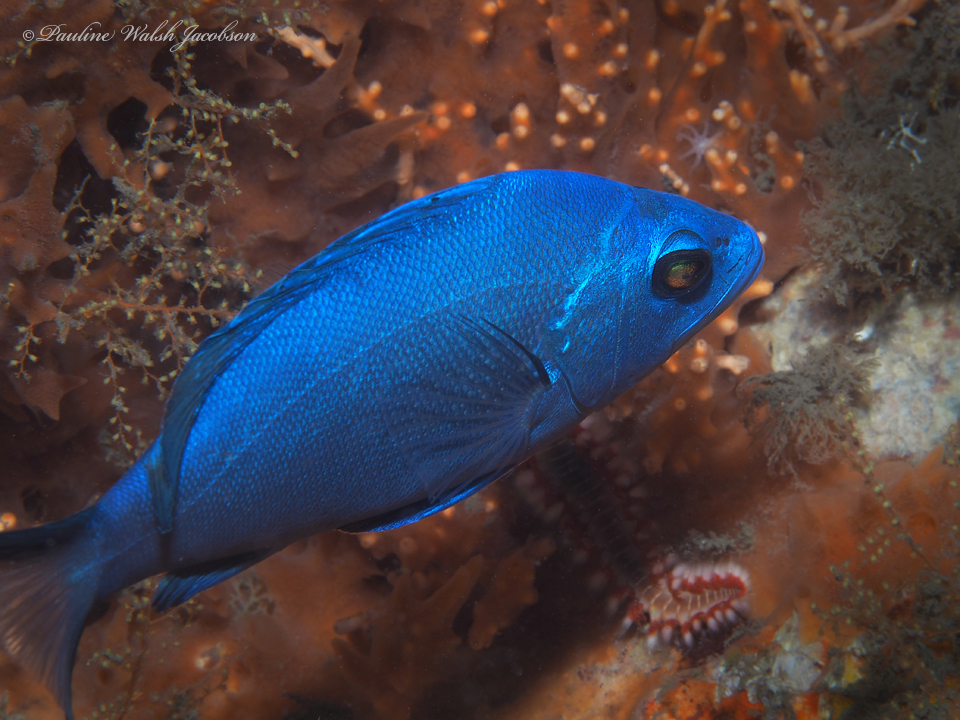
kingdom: Animalia
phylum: Chordata
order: Perciformes
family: Serranidae
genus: Hypoplectrus
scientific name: Hypoplectrus gemma
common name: Blue hamlet
